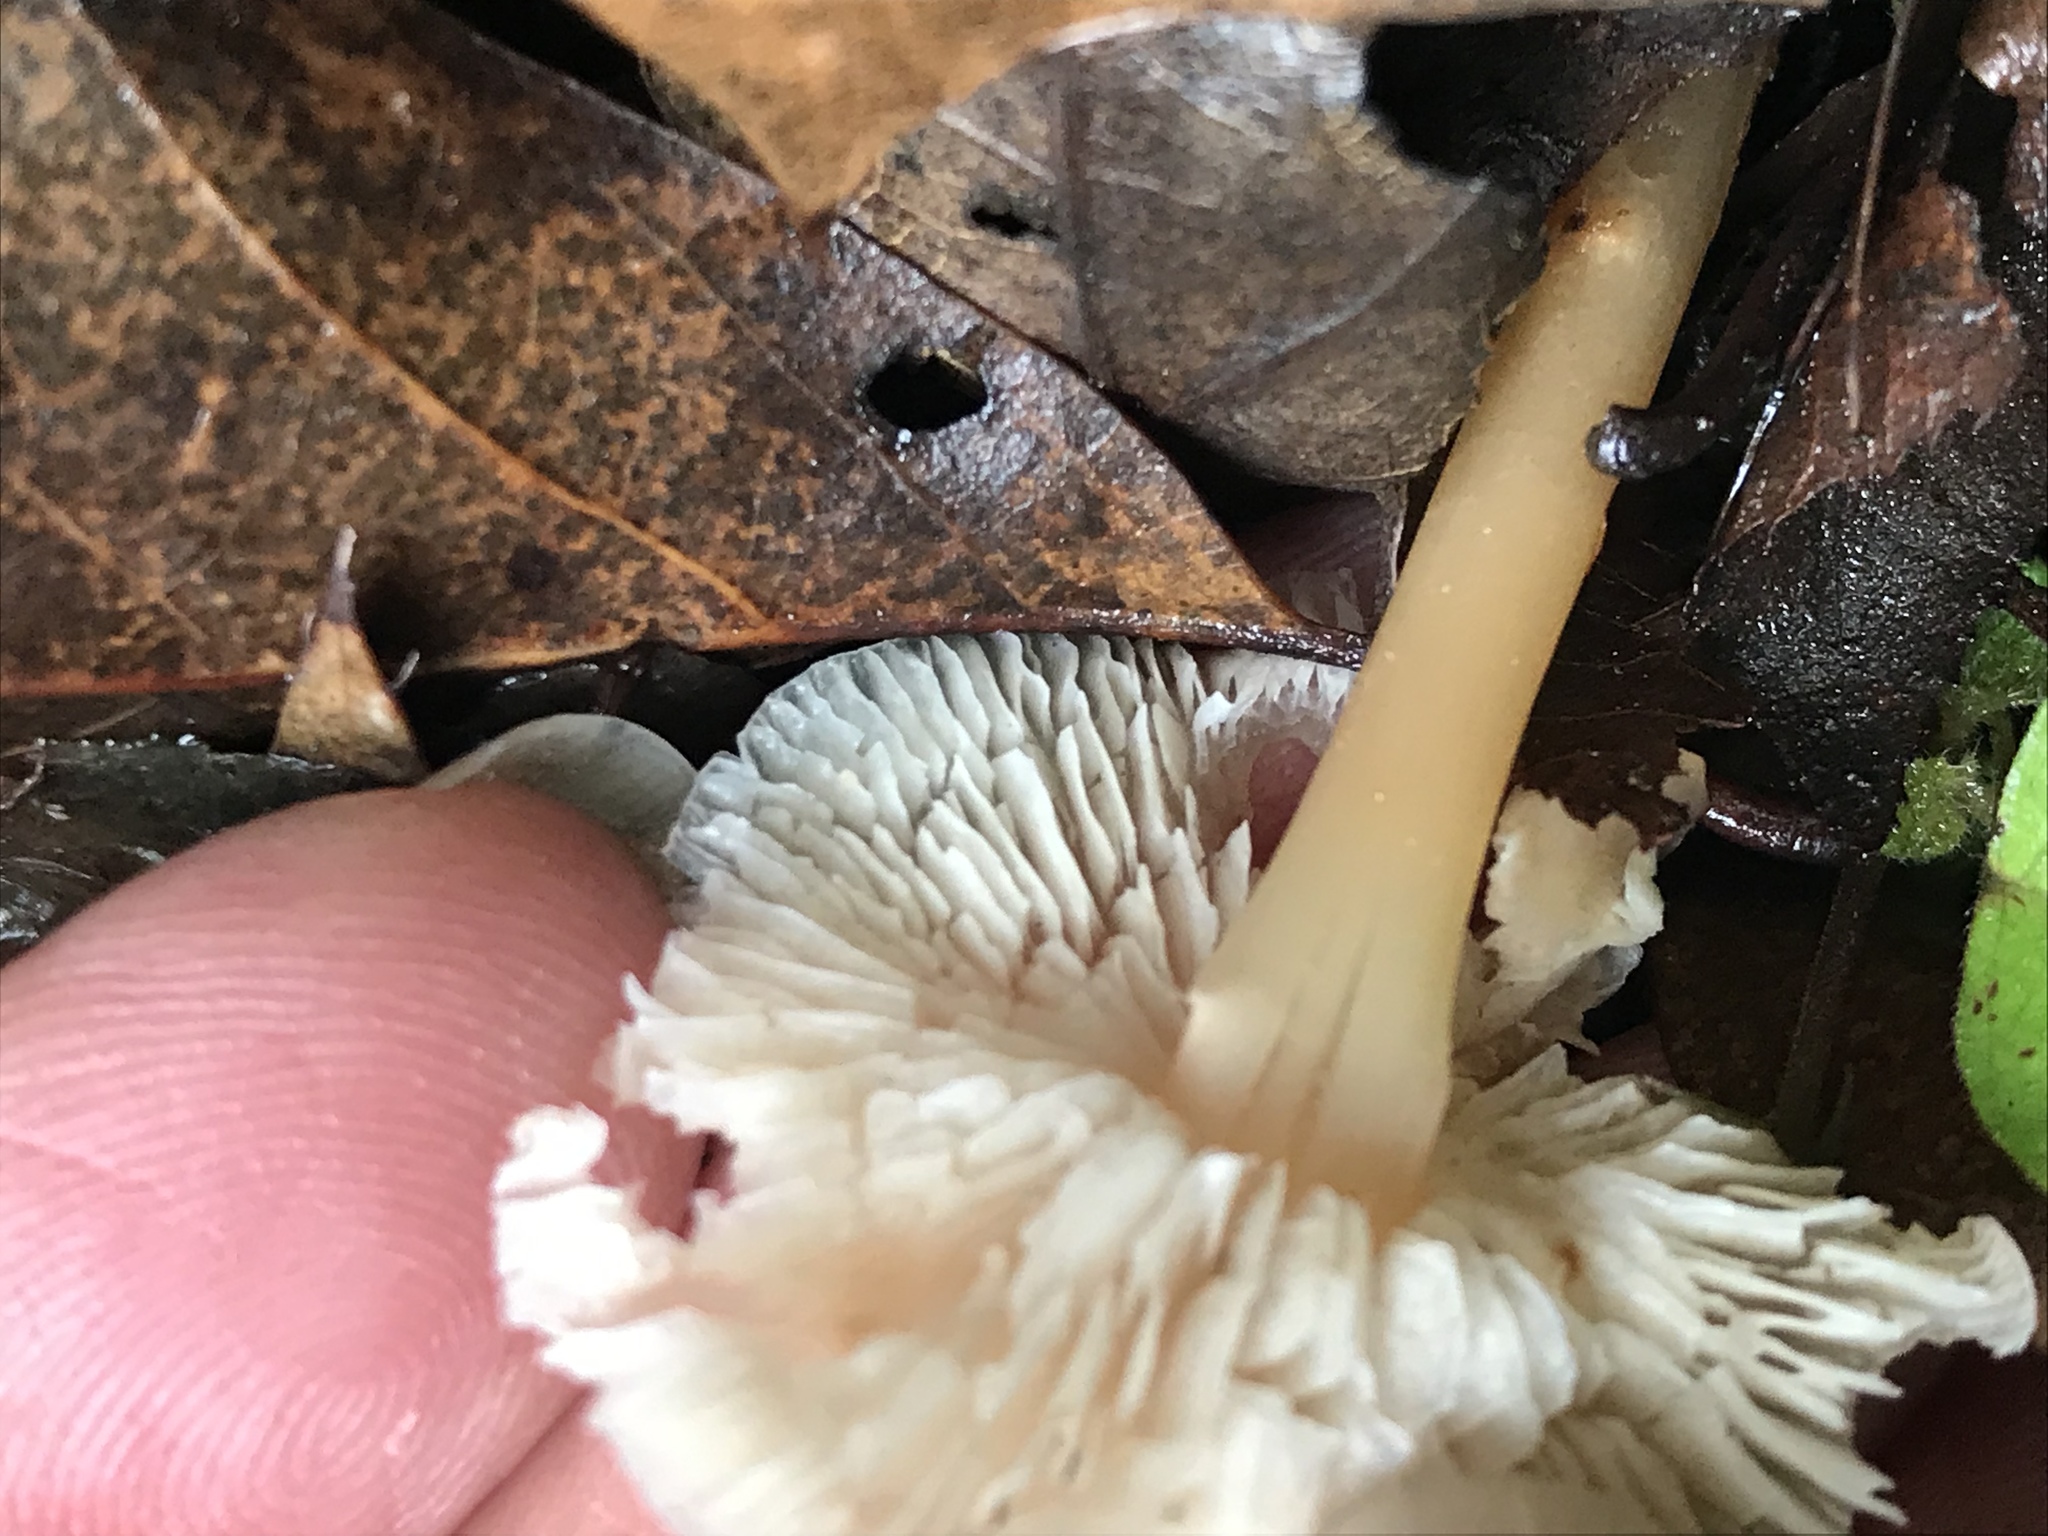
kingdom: Fungi
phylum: Basidiomycota
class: Agaricomycetes
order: Agaricales
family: Omphalotaceae
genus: Gymnopus
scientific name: Gymnopus dryophilus
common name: Penny top
